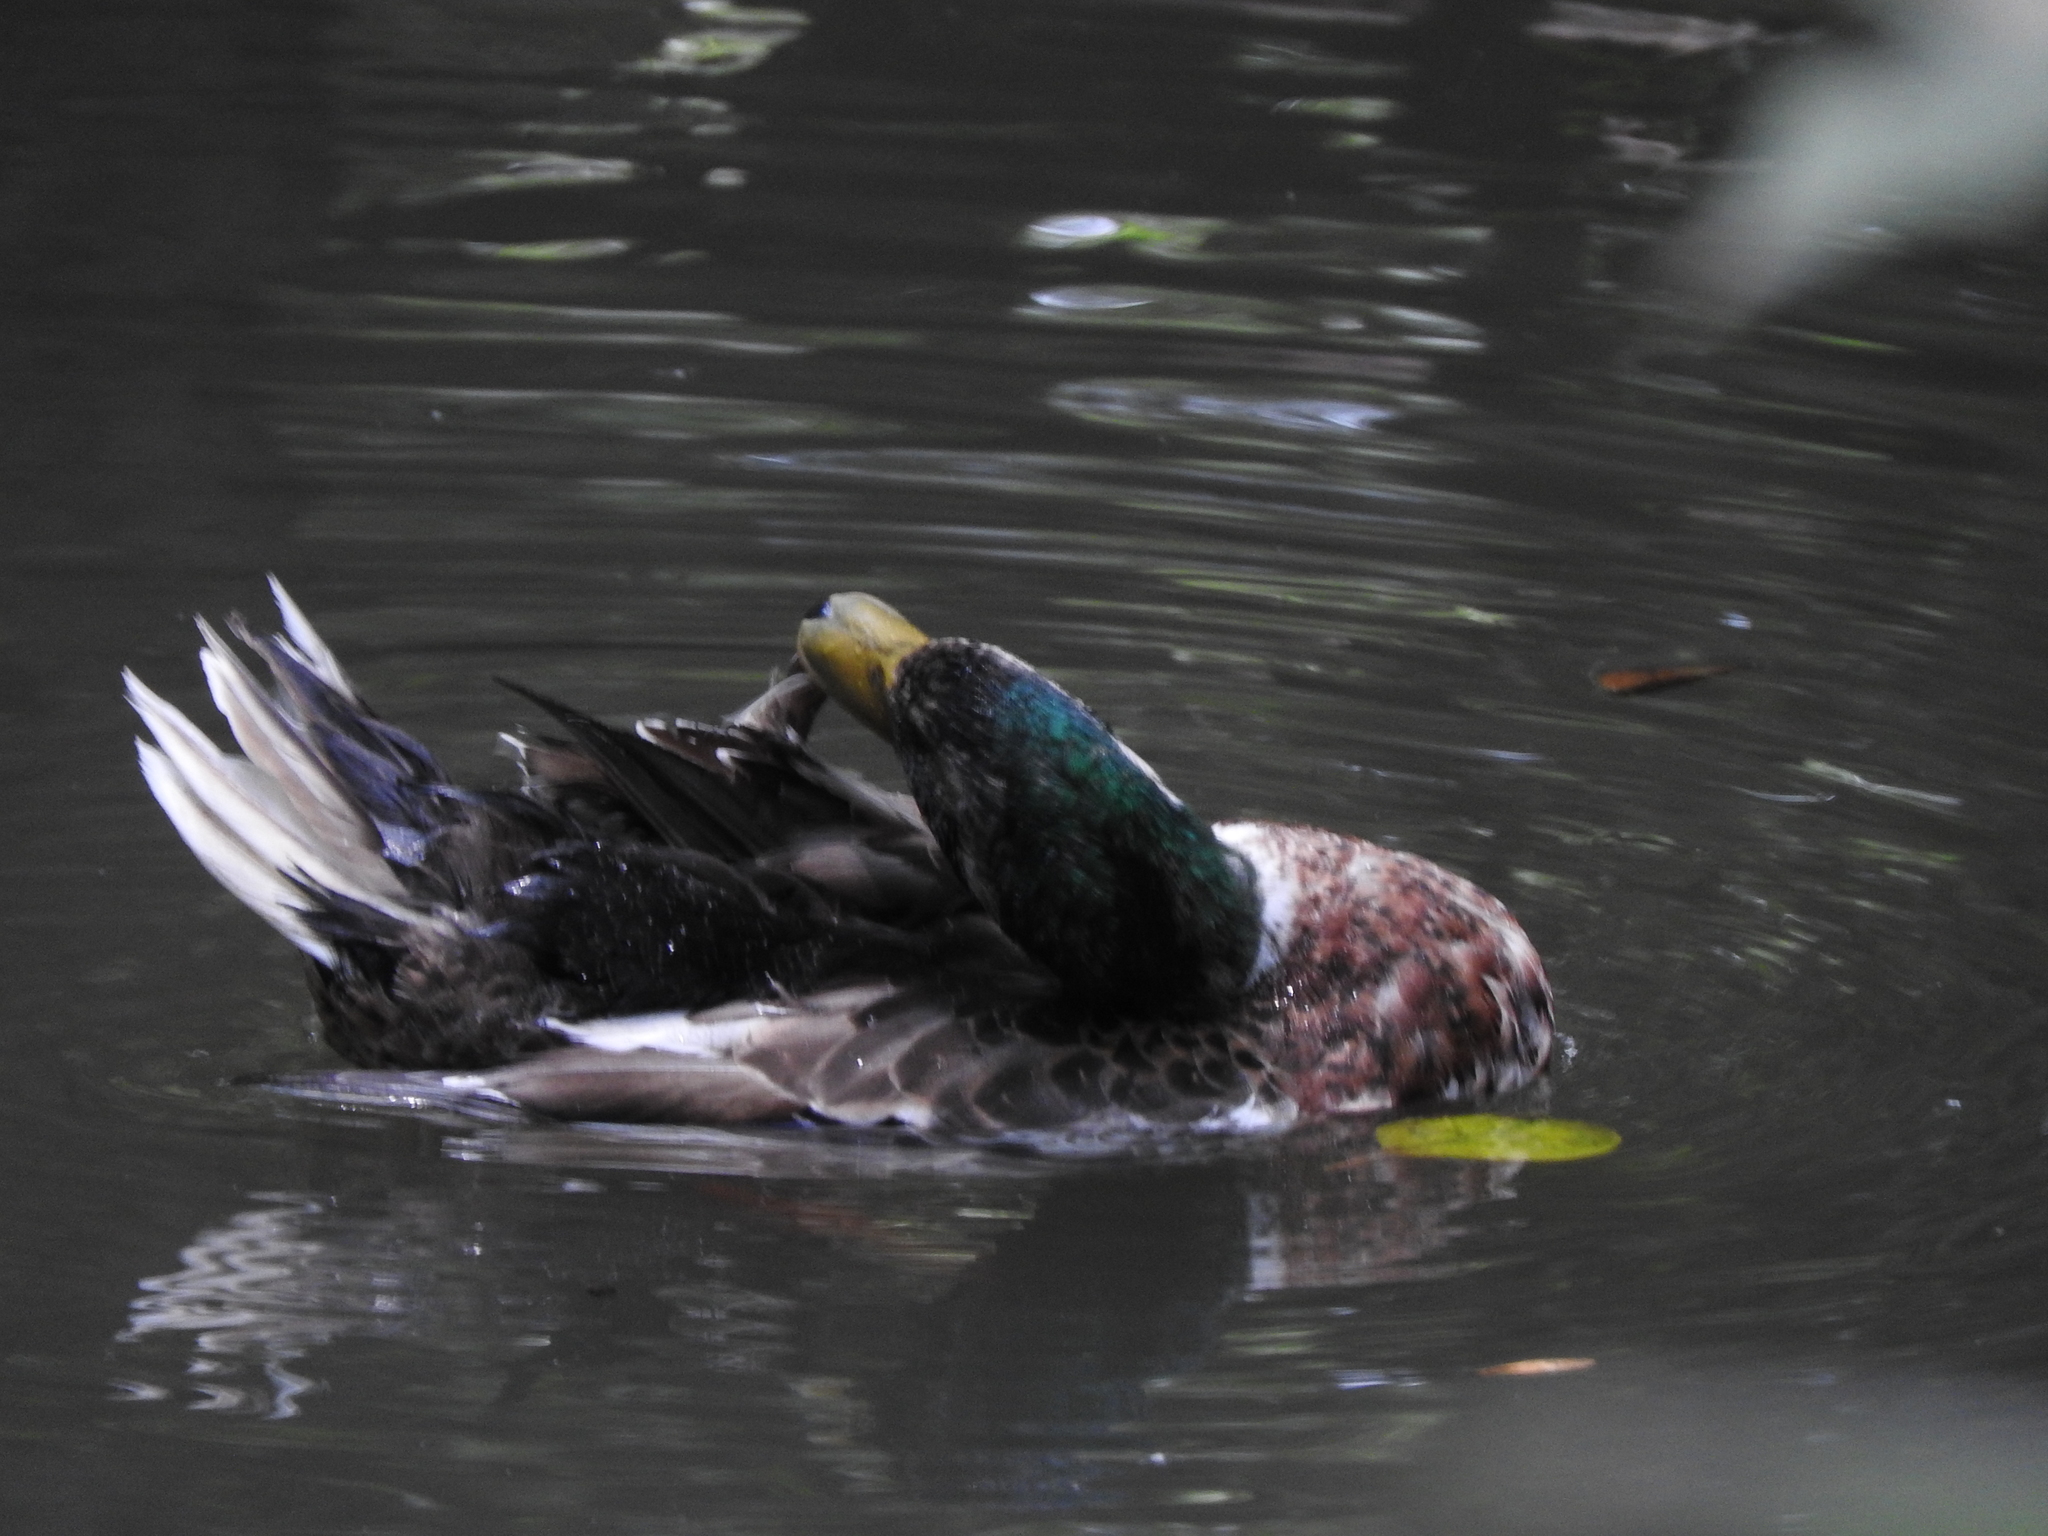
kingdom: Animalia
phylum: Chordata
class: Aves
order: Anseriformes
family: Anatidae
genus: Anas
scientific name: Anas platyrhynchos
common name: Mallard
